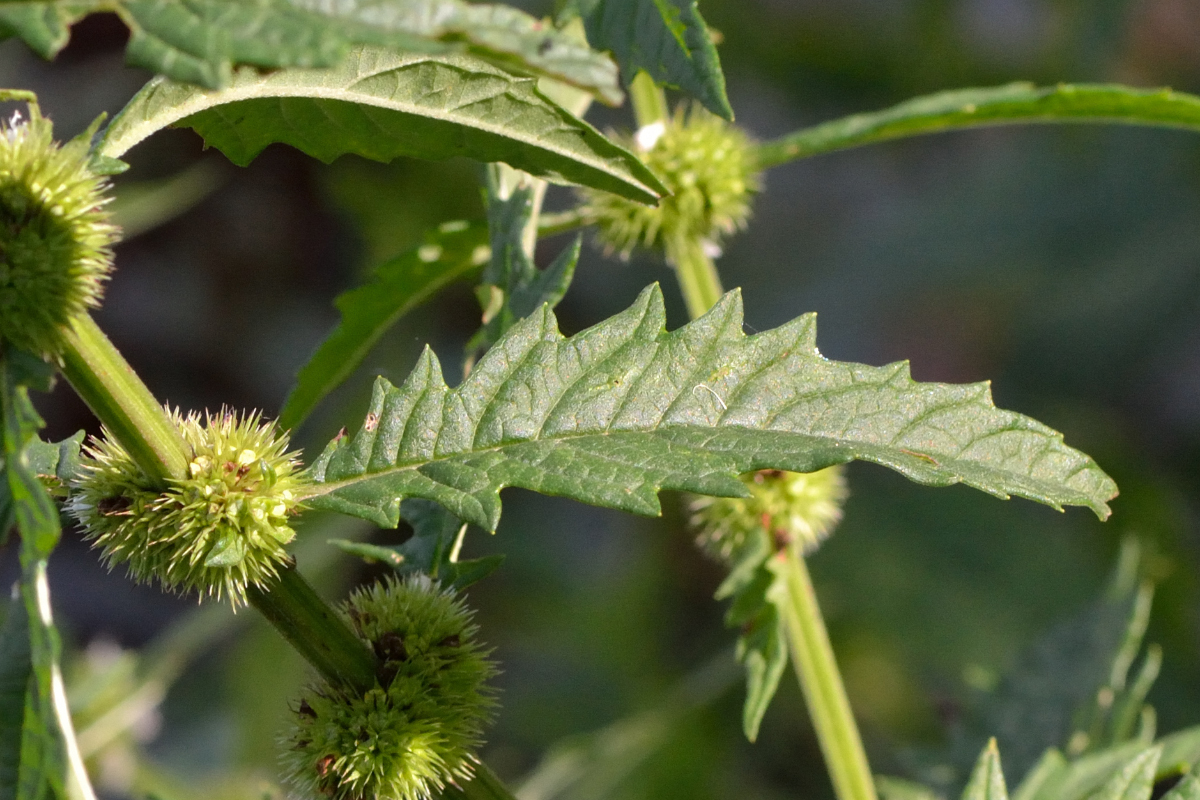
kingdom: Plantae
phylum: Tracheophyta
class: Magnoliopsida
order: Lamiales
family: Lamiaceae
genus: Lycopus
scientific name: Lycopus europaeus
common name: European bugleweed
